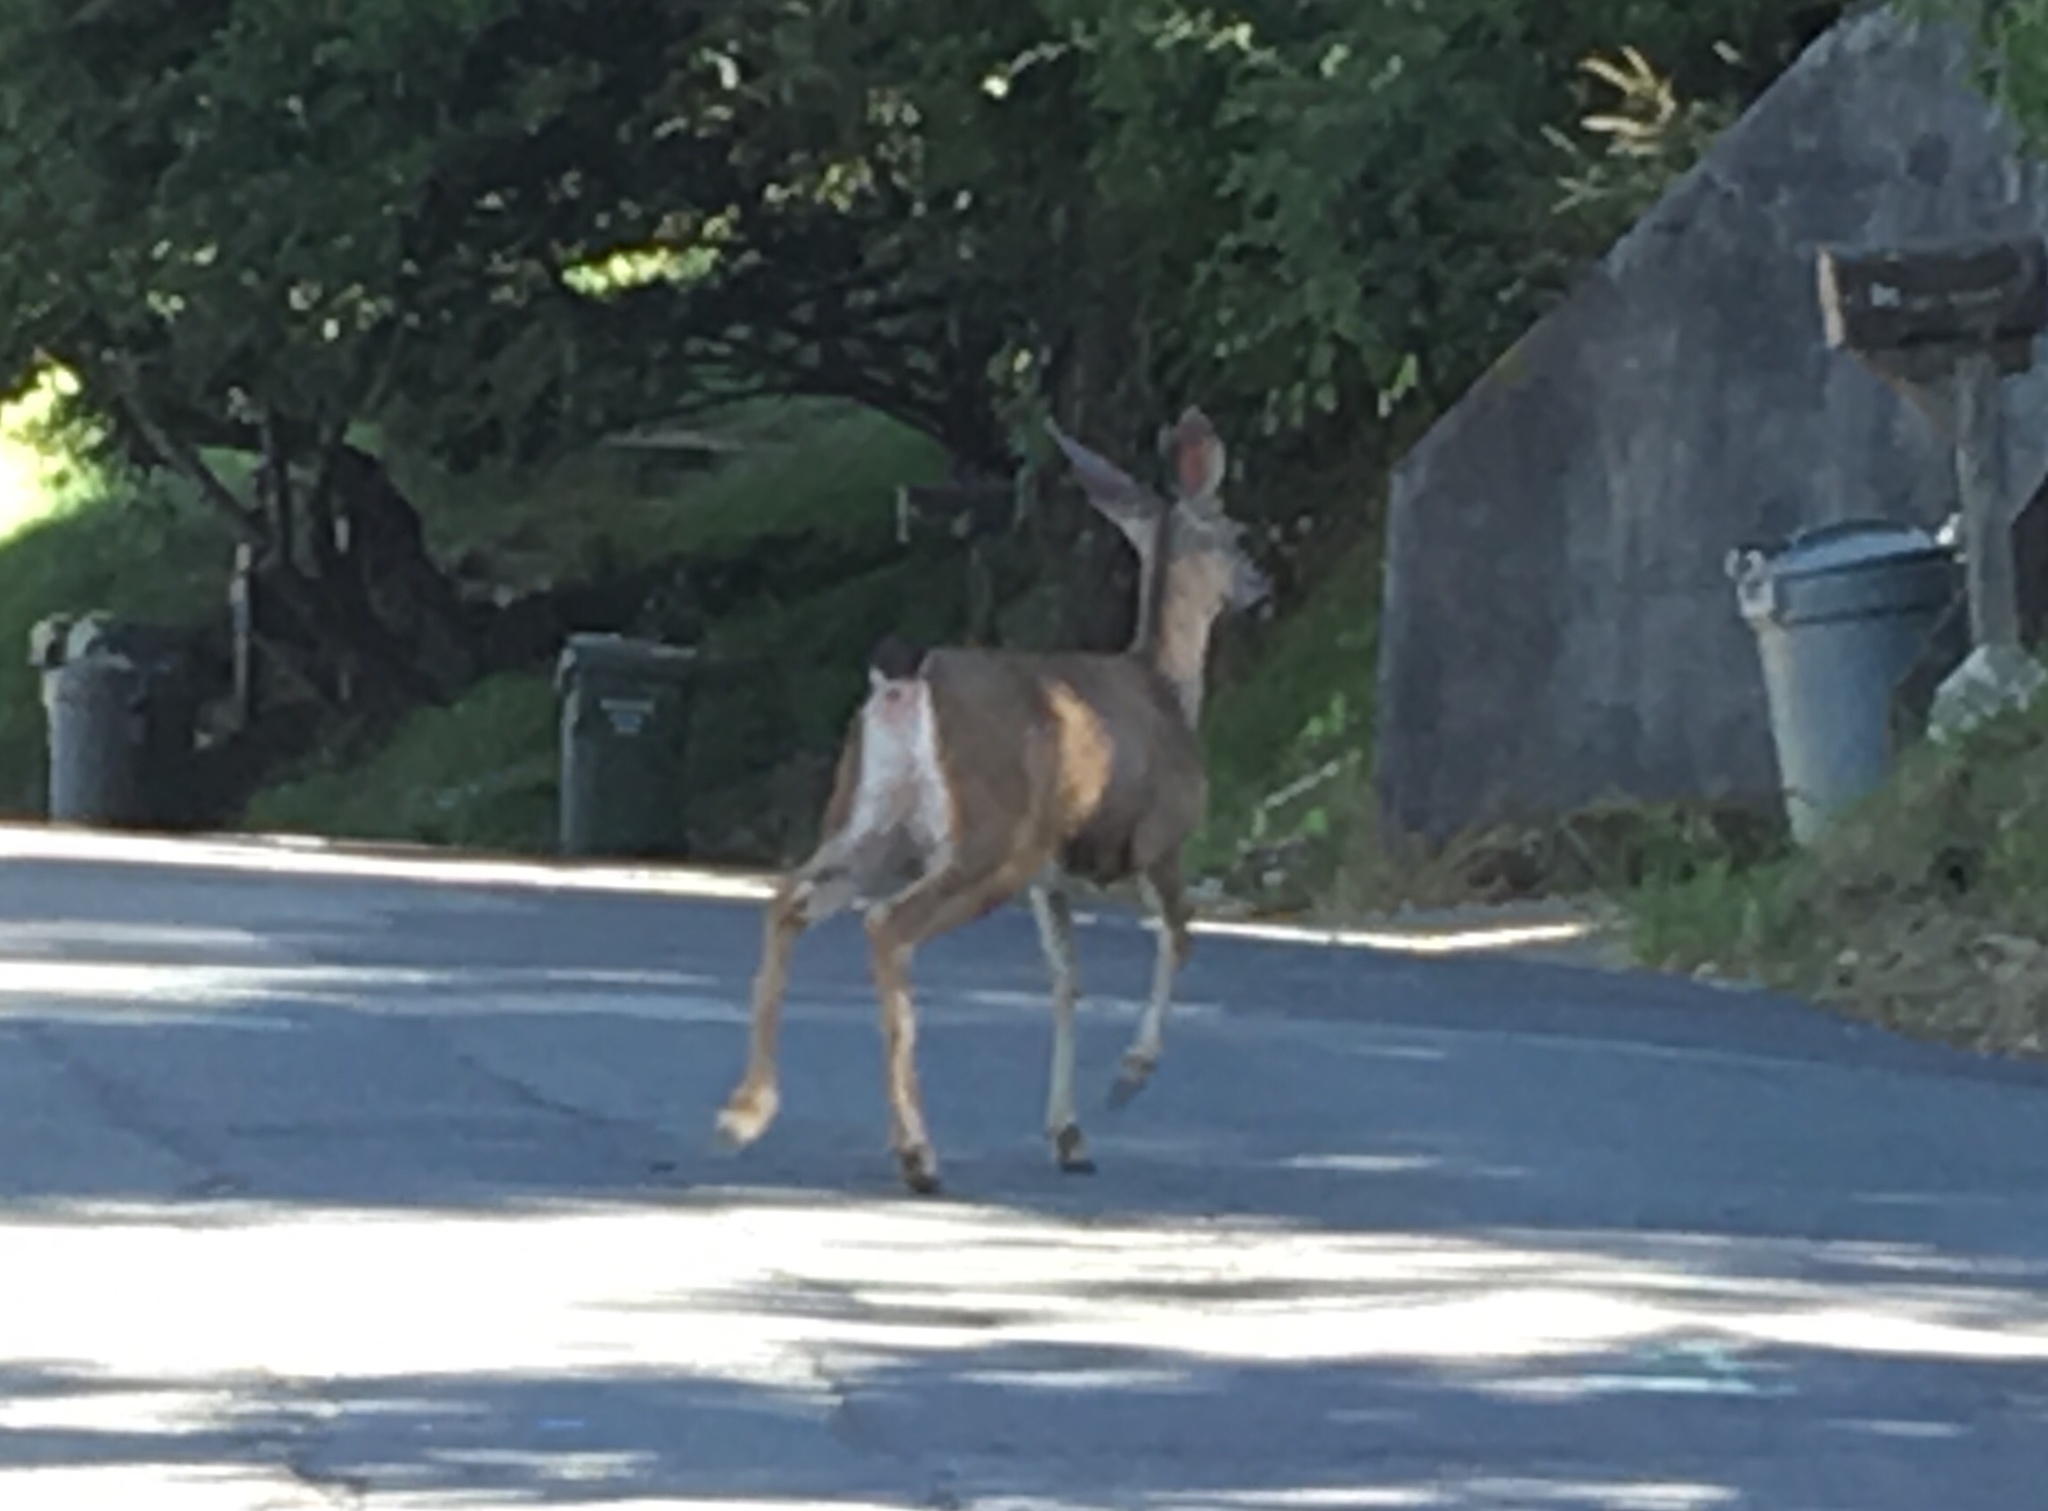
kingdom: Animalia
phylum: Chordata
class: Mammalia
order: Artiodactyla
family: Cervidae
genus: Odocoileus
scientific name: Odocoileus hemionus
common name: Mule deer
